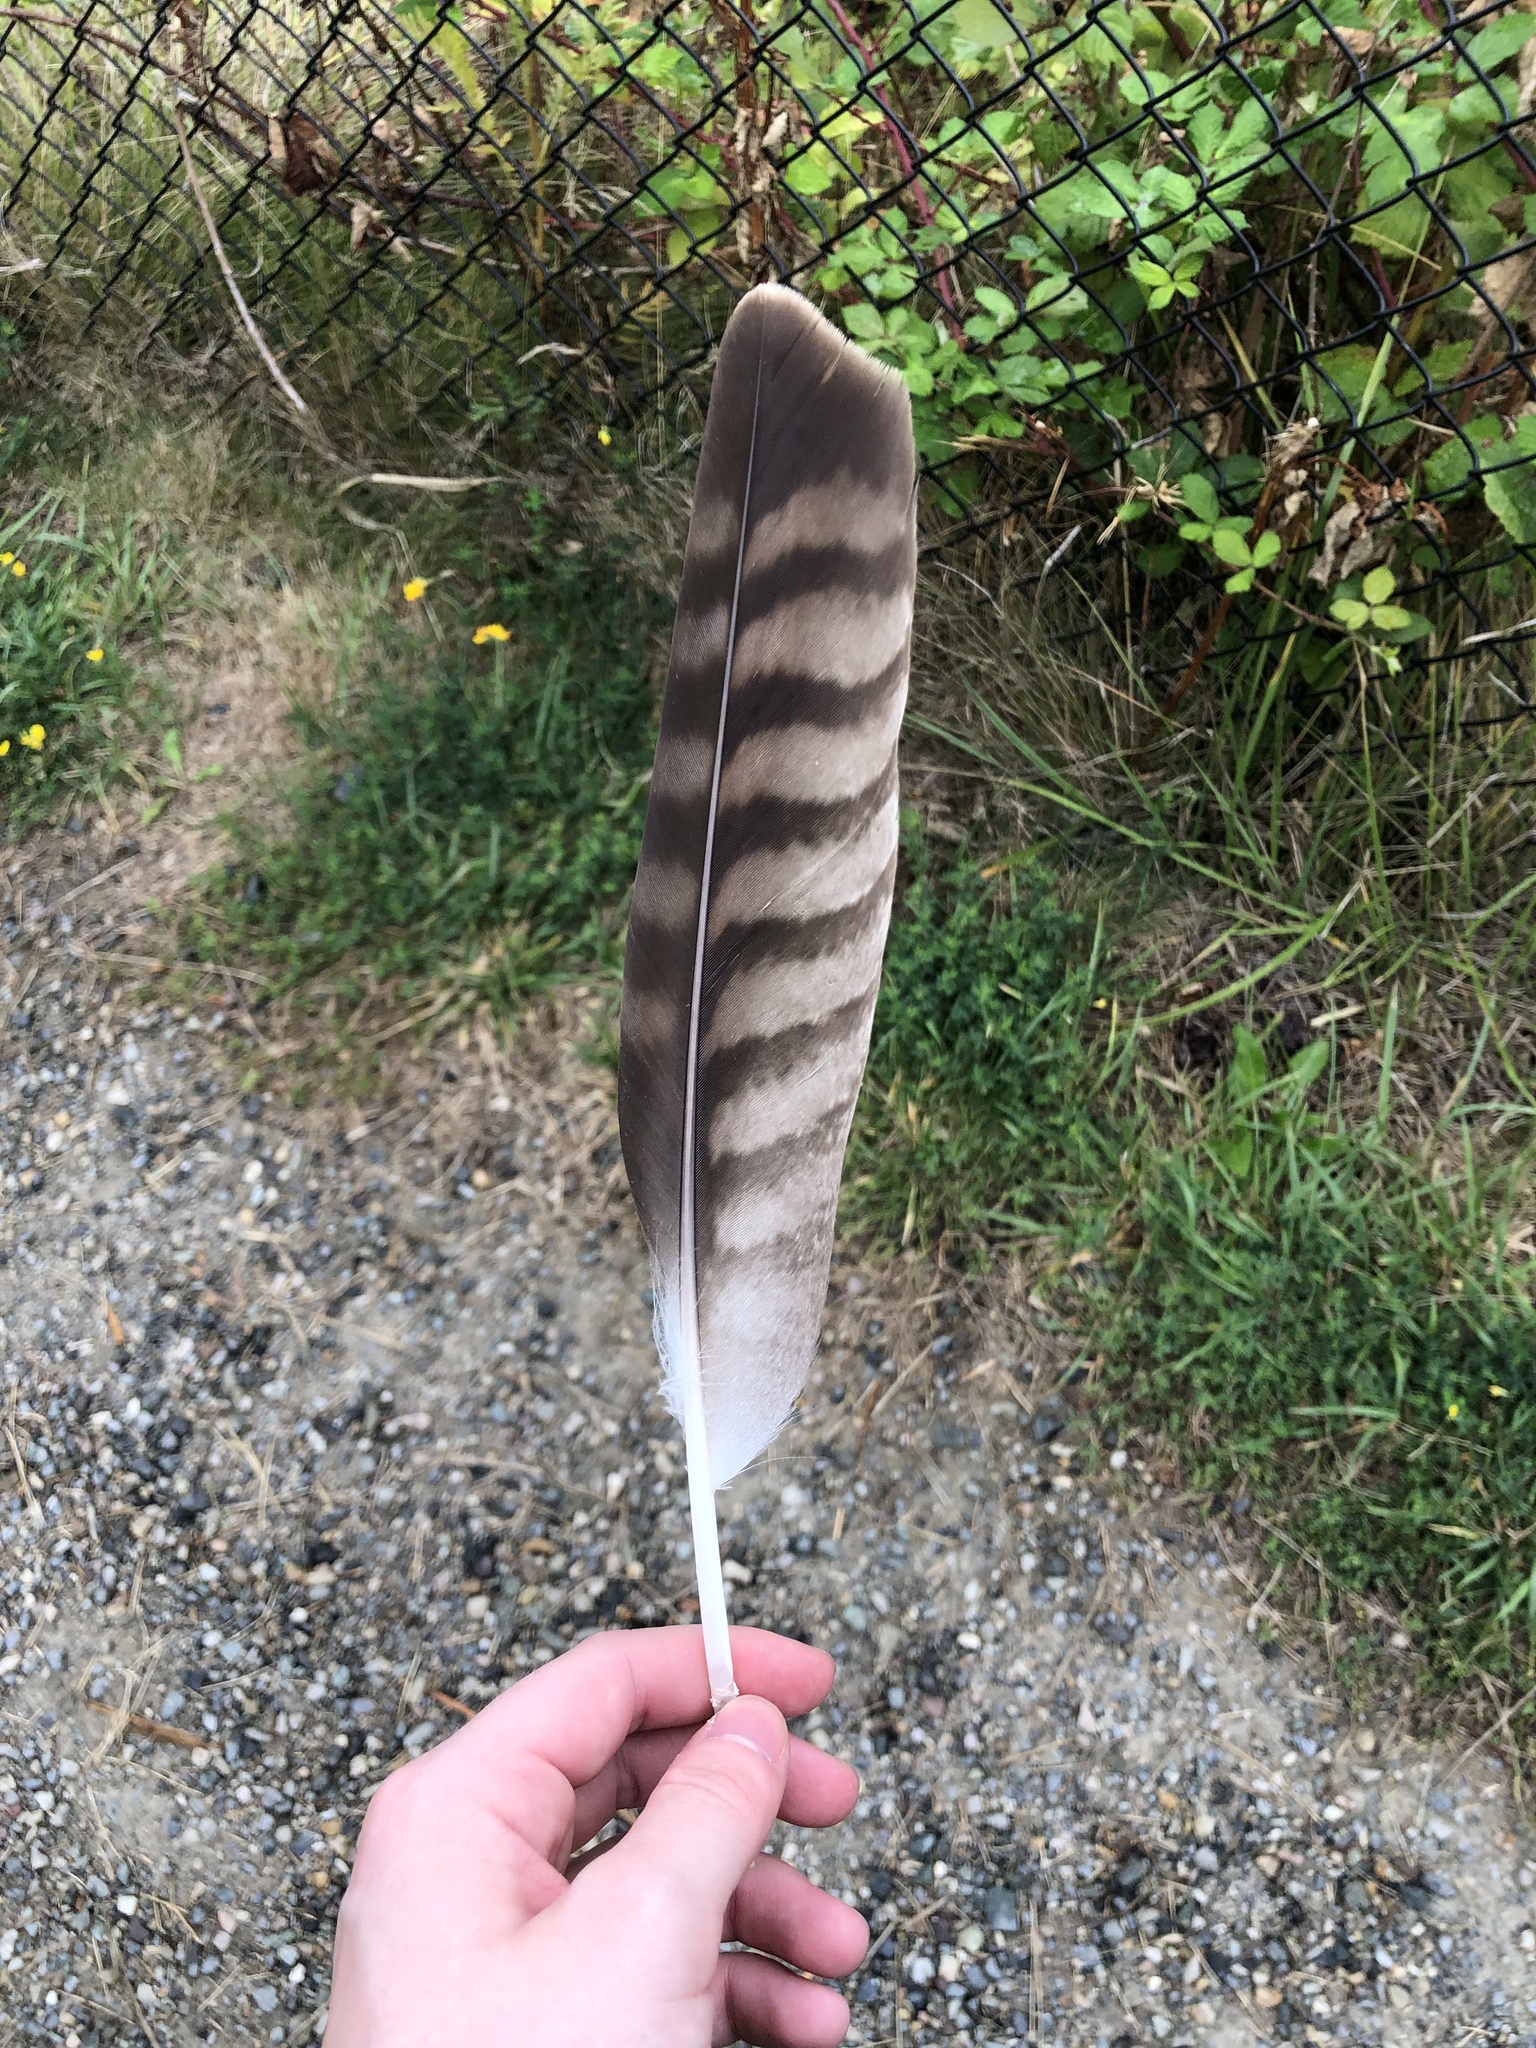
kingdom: Animalia
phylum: Chordata
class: Aves
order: Accipitriformes
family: Accipitridae
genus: Buteo
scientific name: Buteo jamaicensis
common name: Red-tailed hawk
